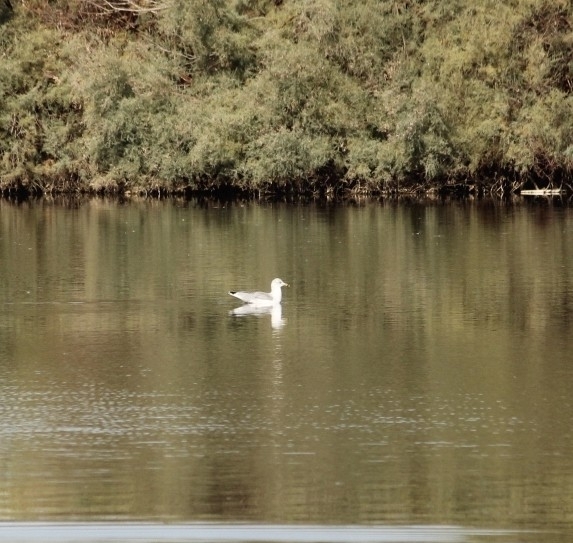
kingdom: Animalia
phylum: Chordata
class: Aves
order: Charadriiformes
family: Laridae
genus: Larus
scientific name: Larus delawarensis
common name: Ring-billed gull
